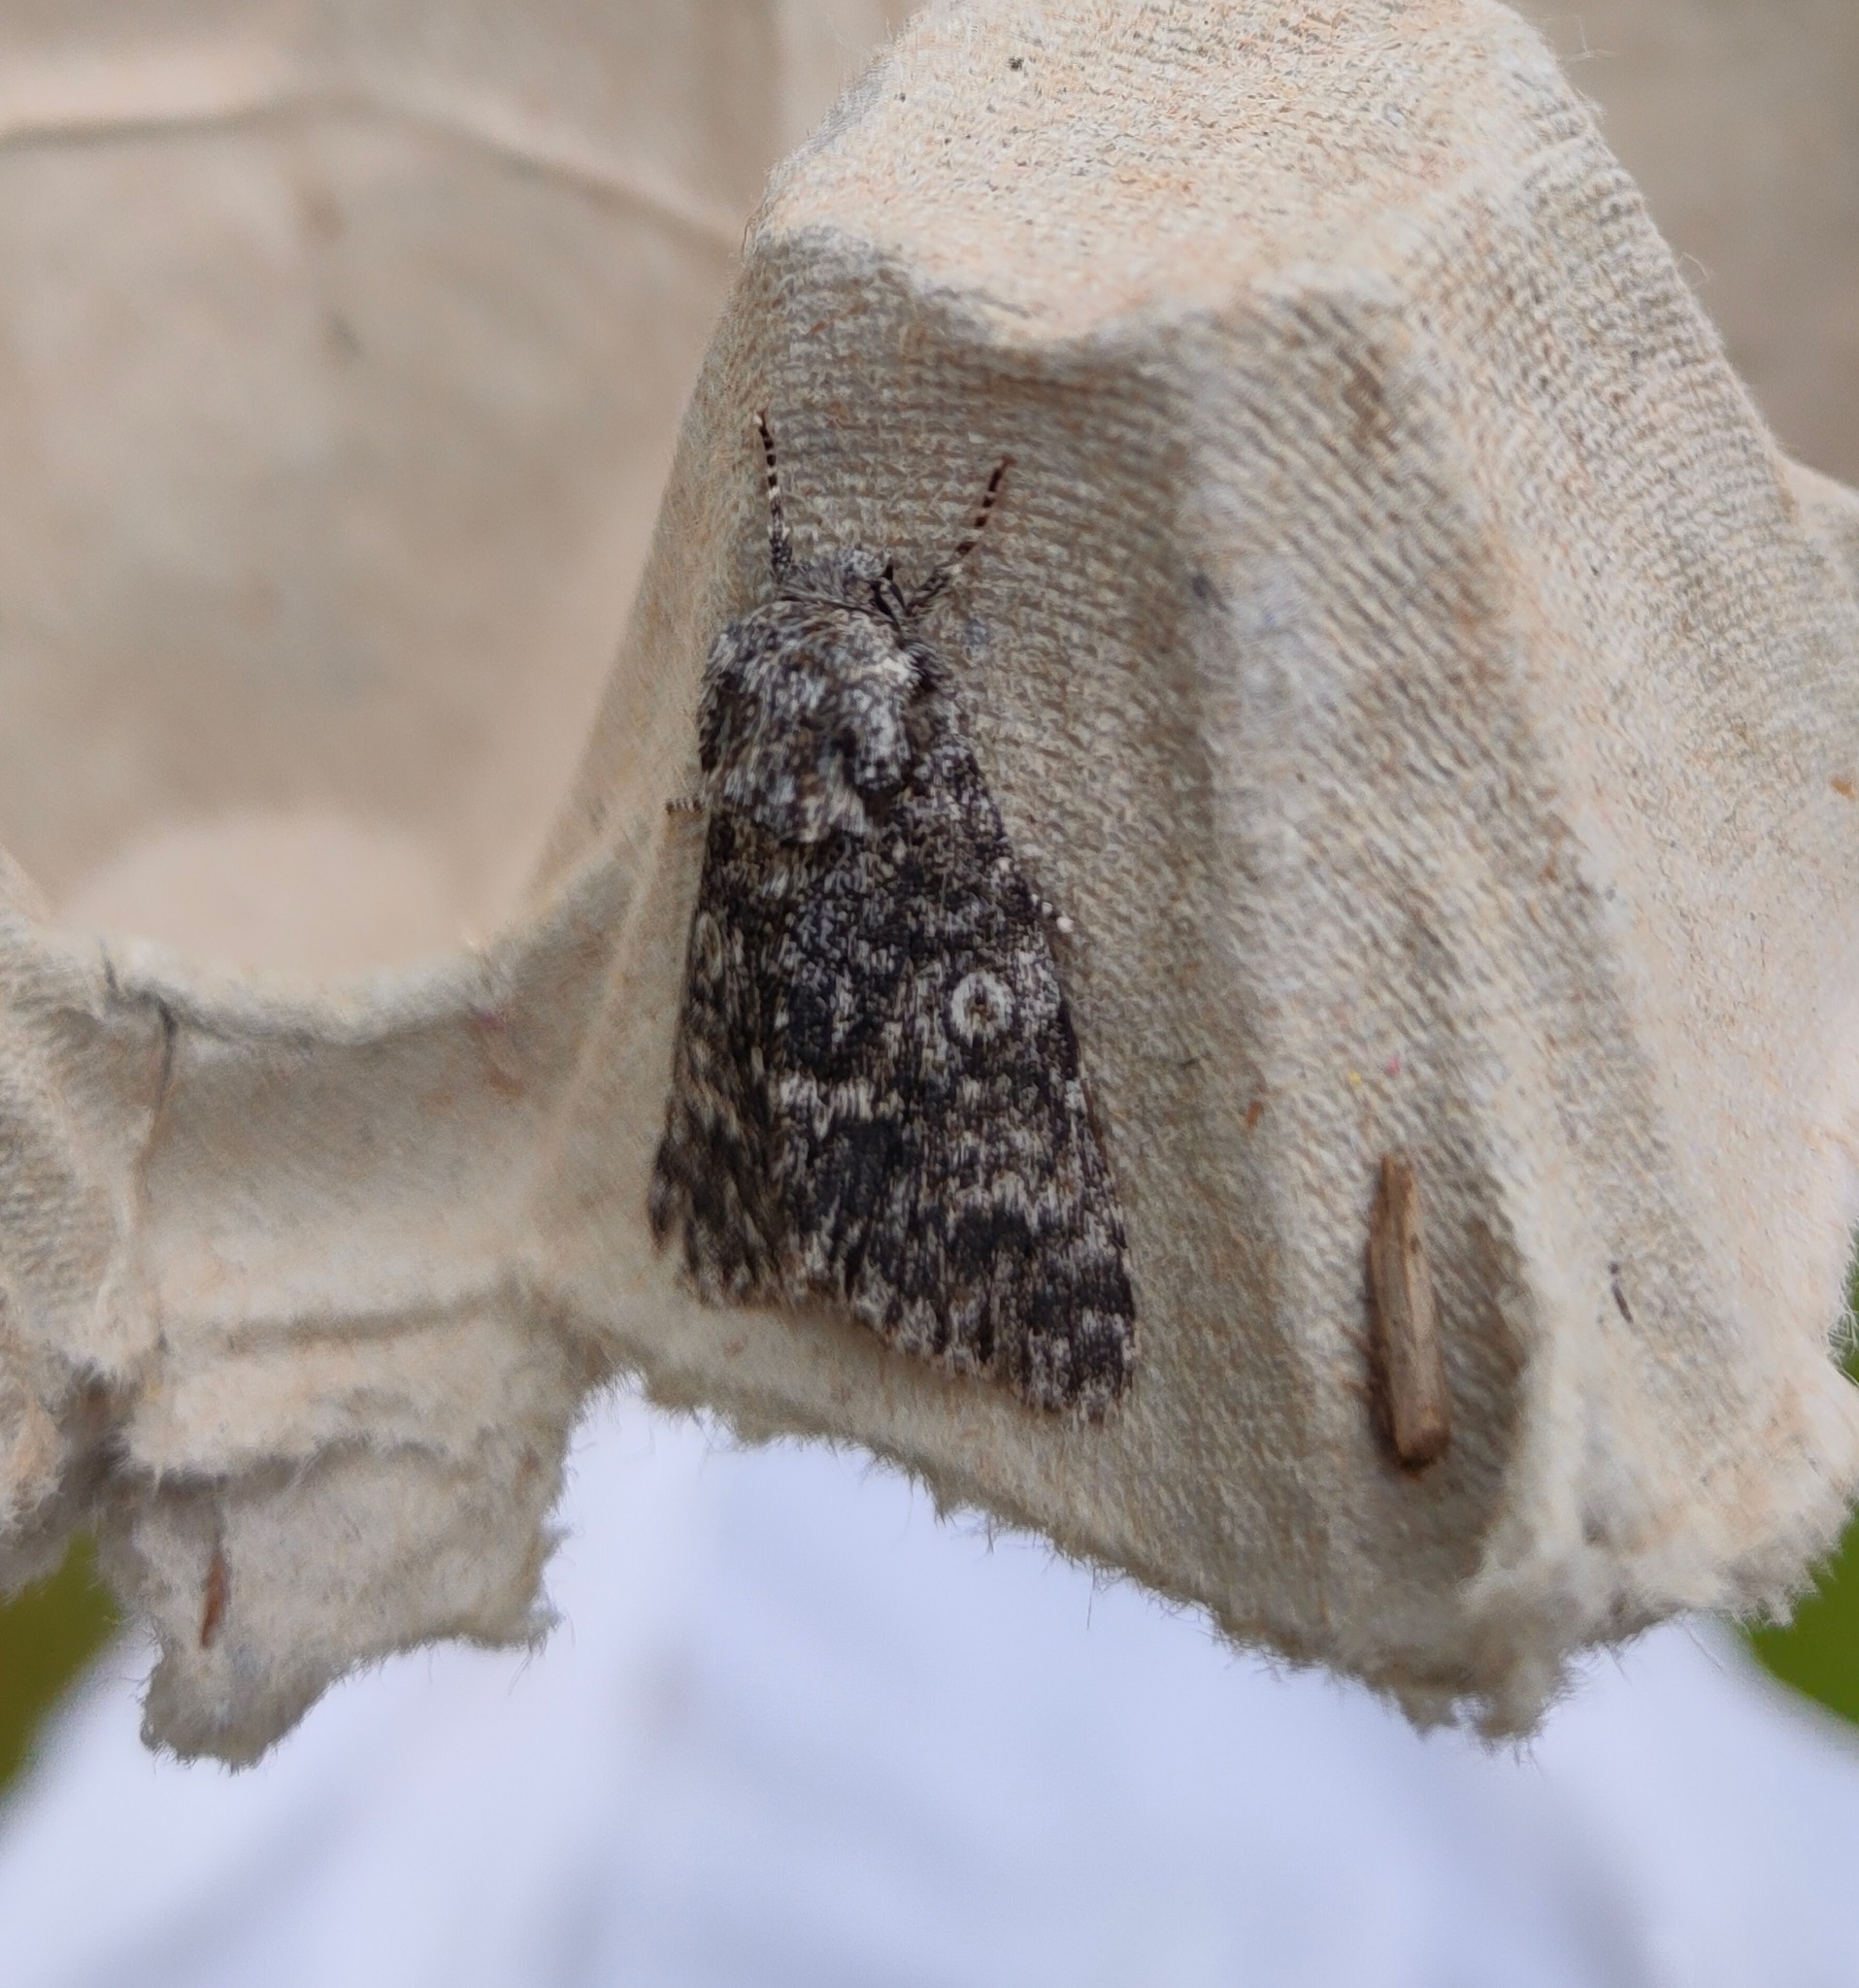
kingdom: Animalia
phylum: Arthropoda
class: Insecta
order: Lepidoptera
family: Noctuidae
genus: Acronicta
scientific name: Acronicta megacephala
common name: Poplar grey
